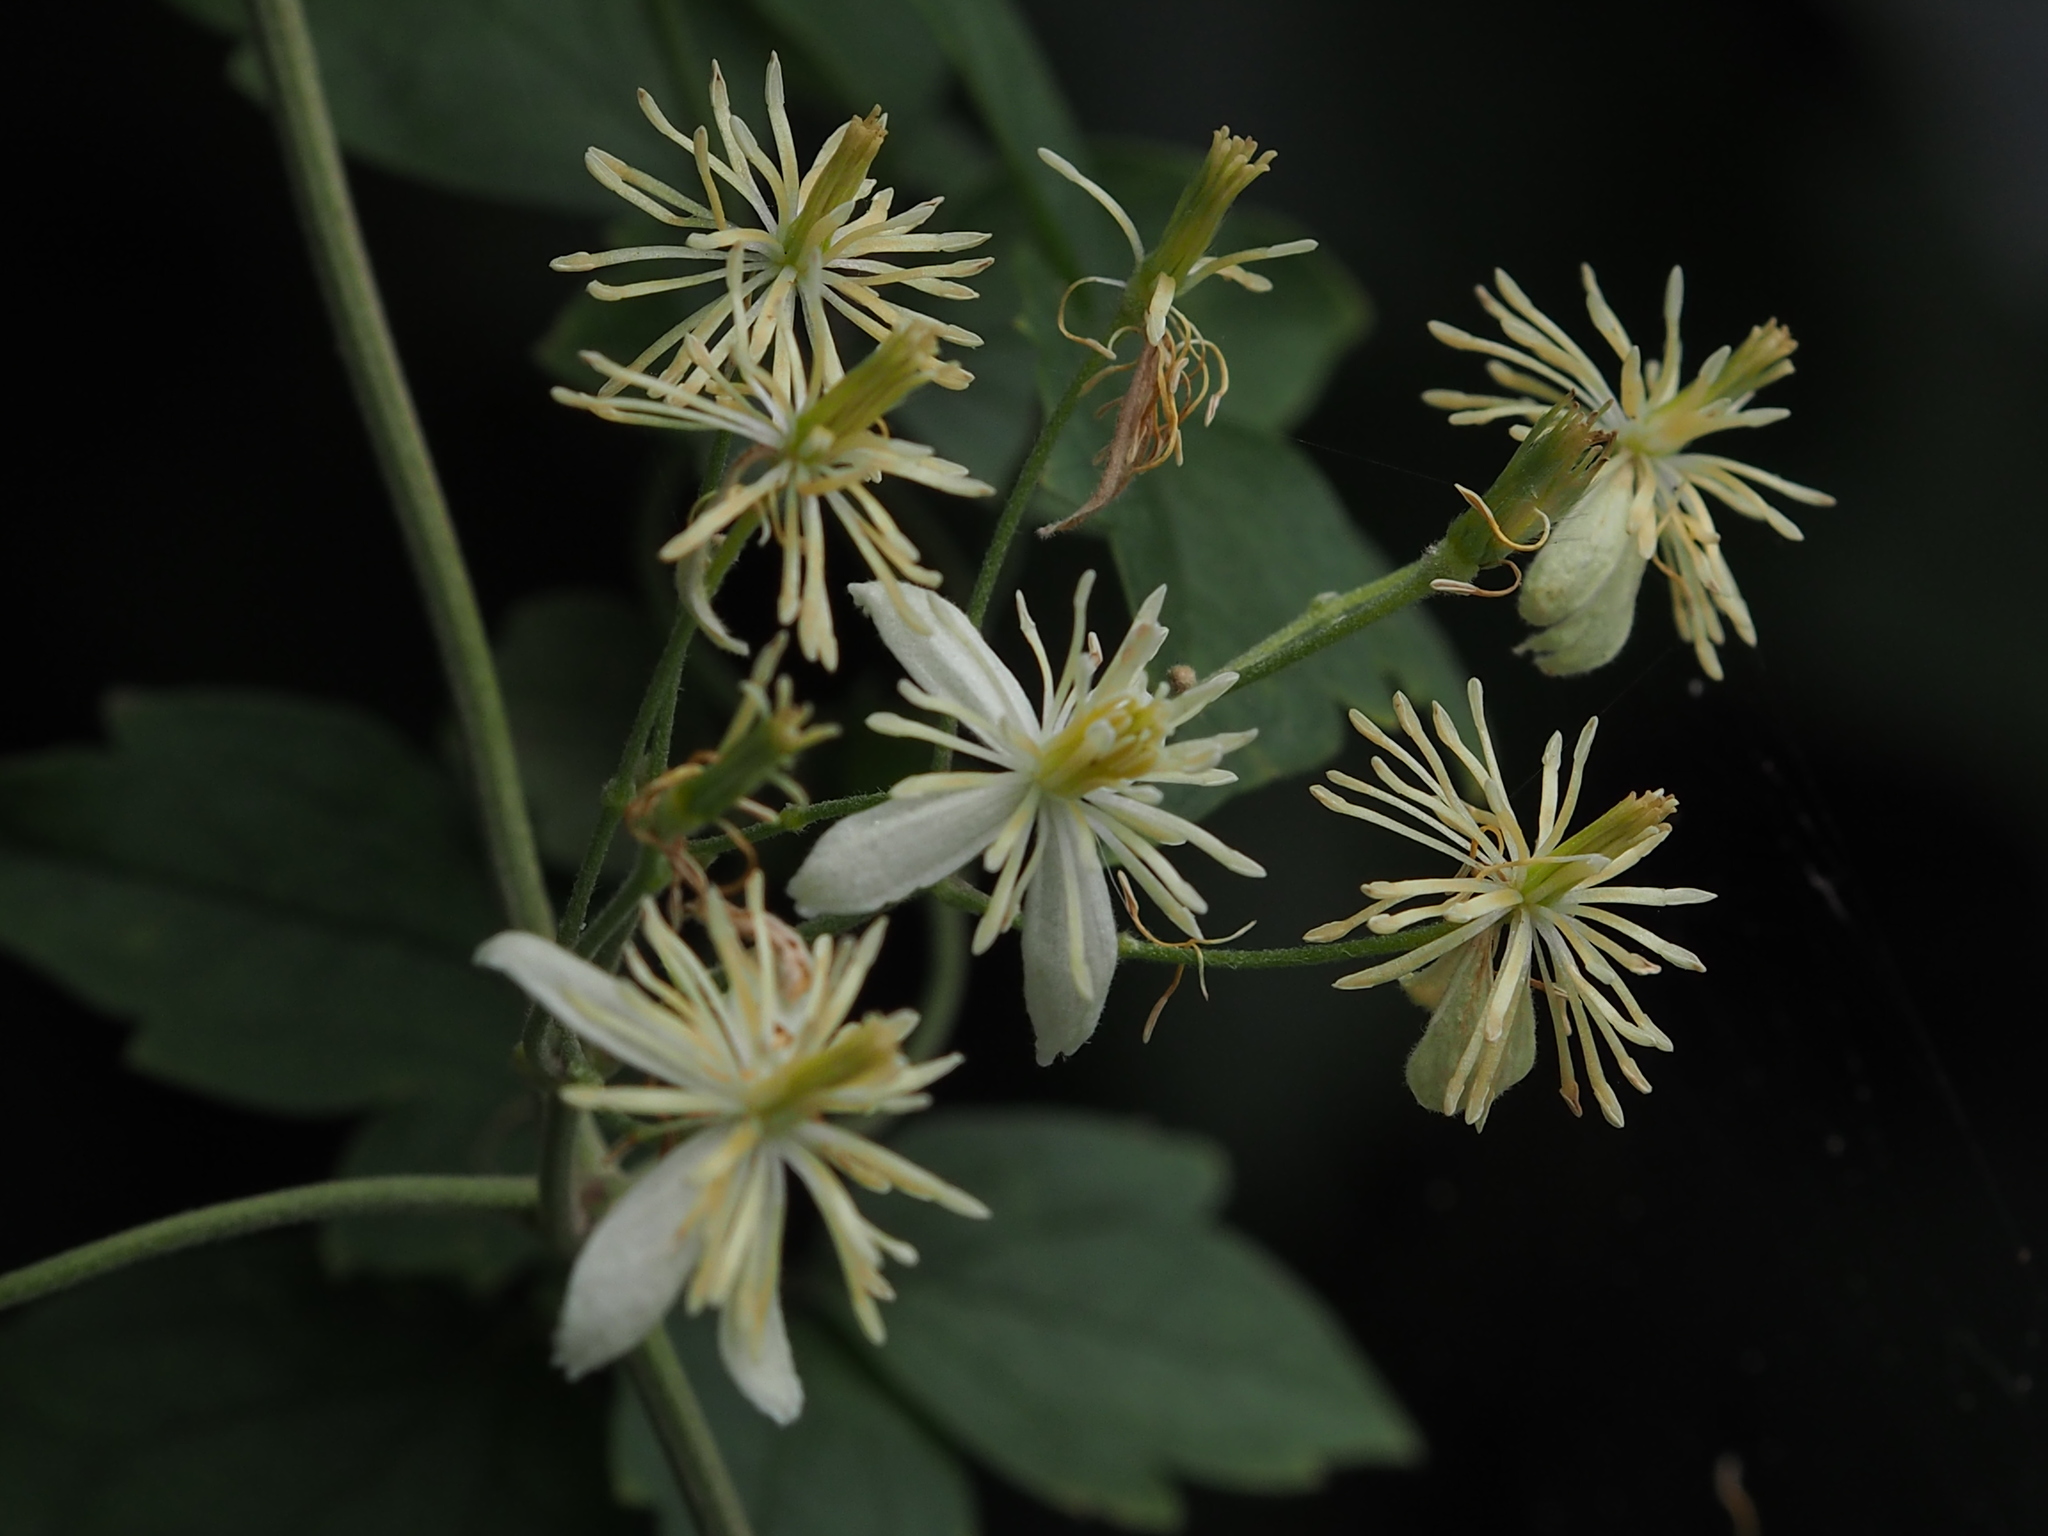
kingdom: Plantae
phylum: Tracheophyta
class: Magnoliopsida
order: Ranunculales
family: Ranunculaceae
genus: Clematis
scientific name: Clematis grata
